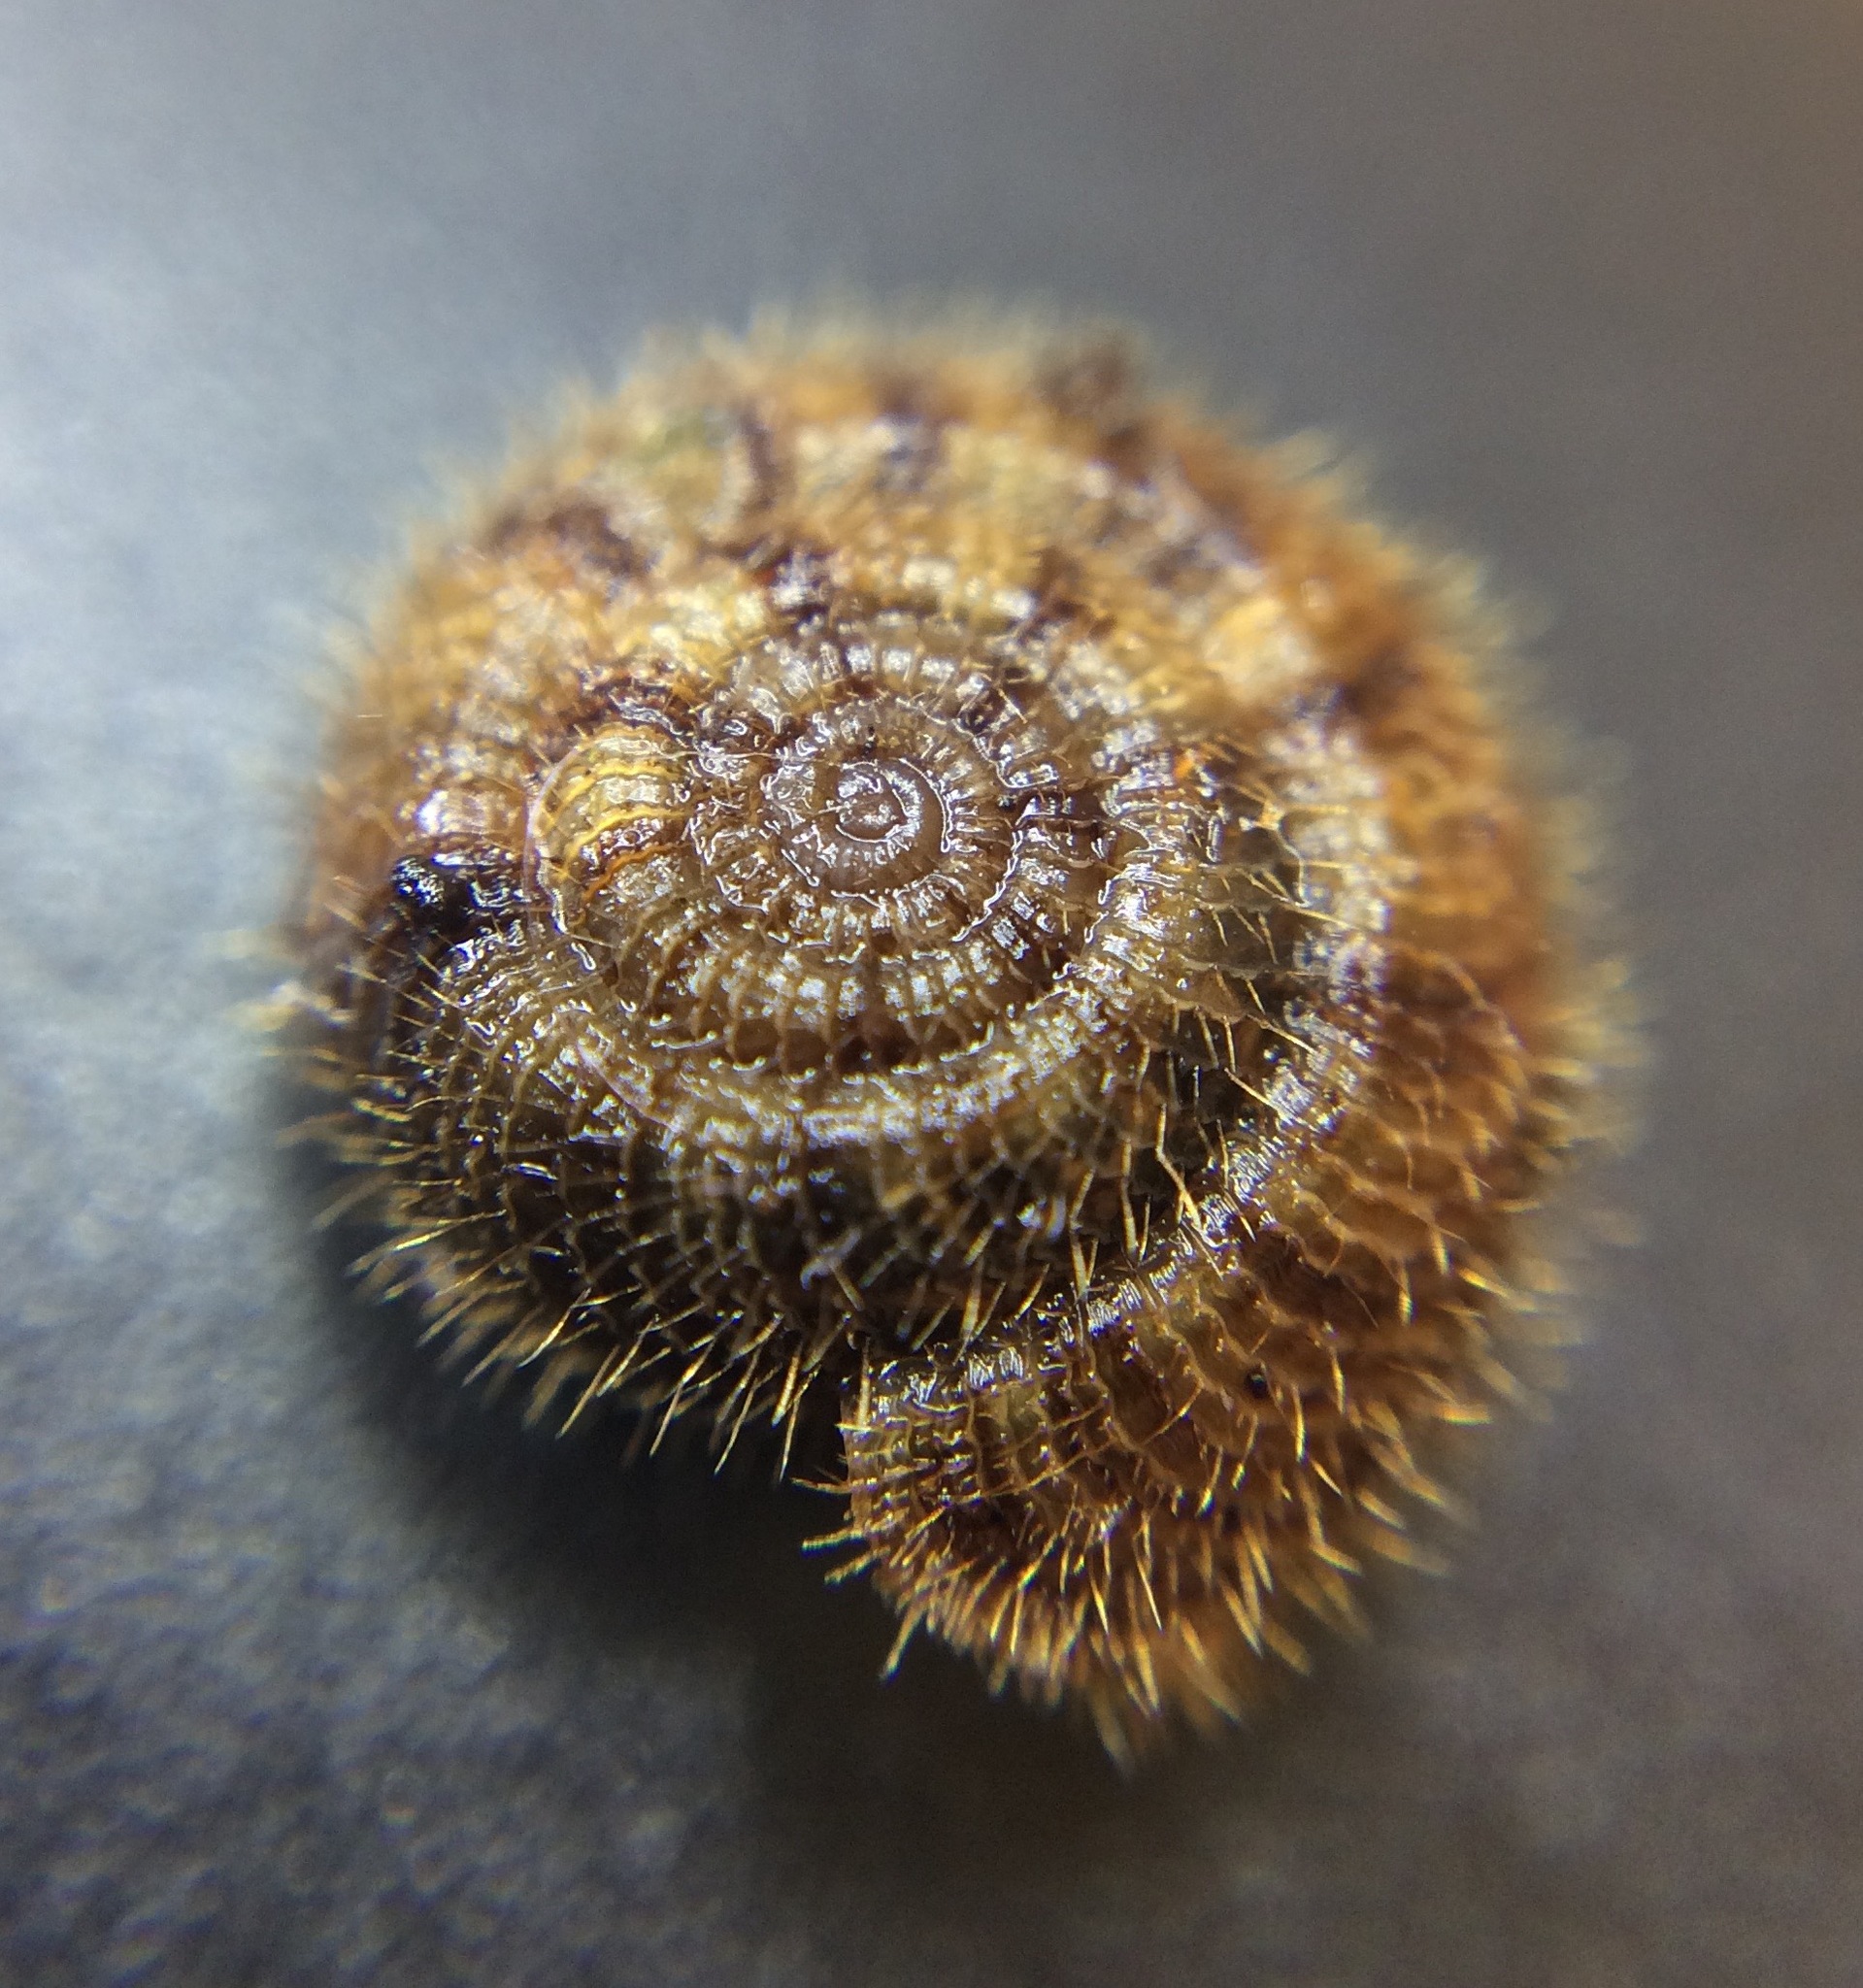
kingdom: Animalia
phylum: Mollusca
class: Gastropoda
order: Stylommatophora
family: Charopidae
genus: Suteria
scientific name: Suteria ide
